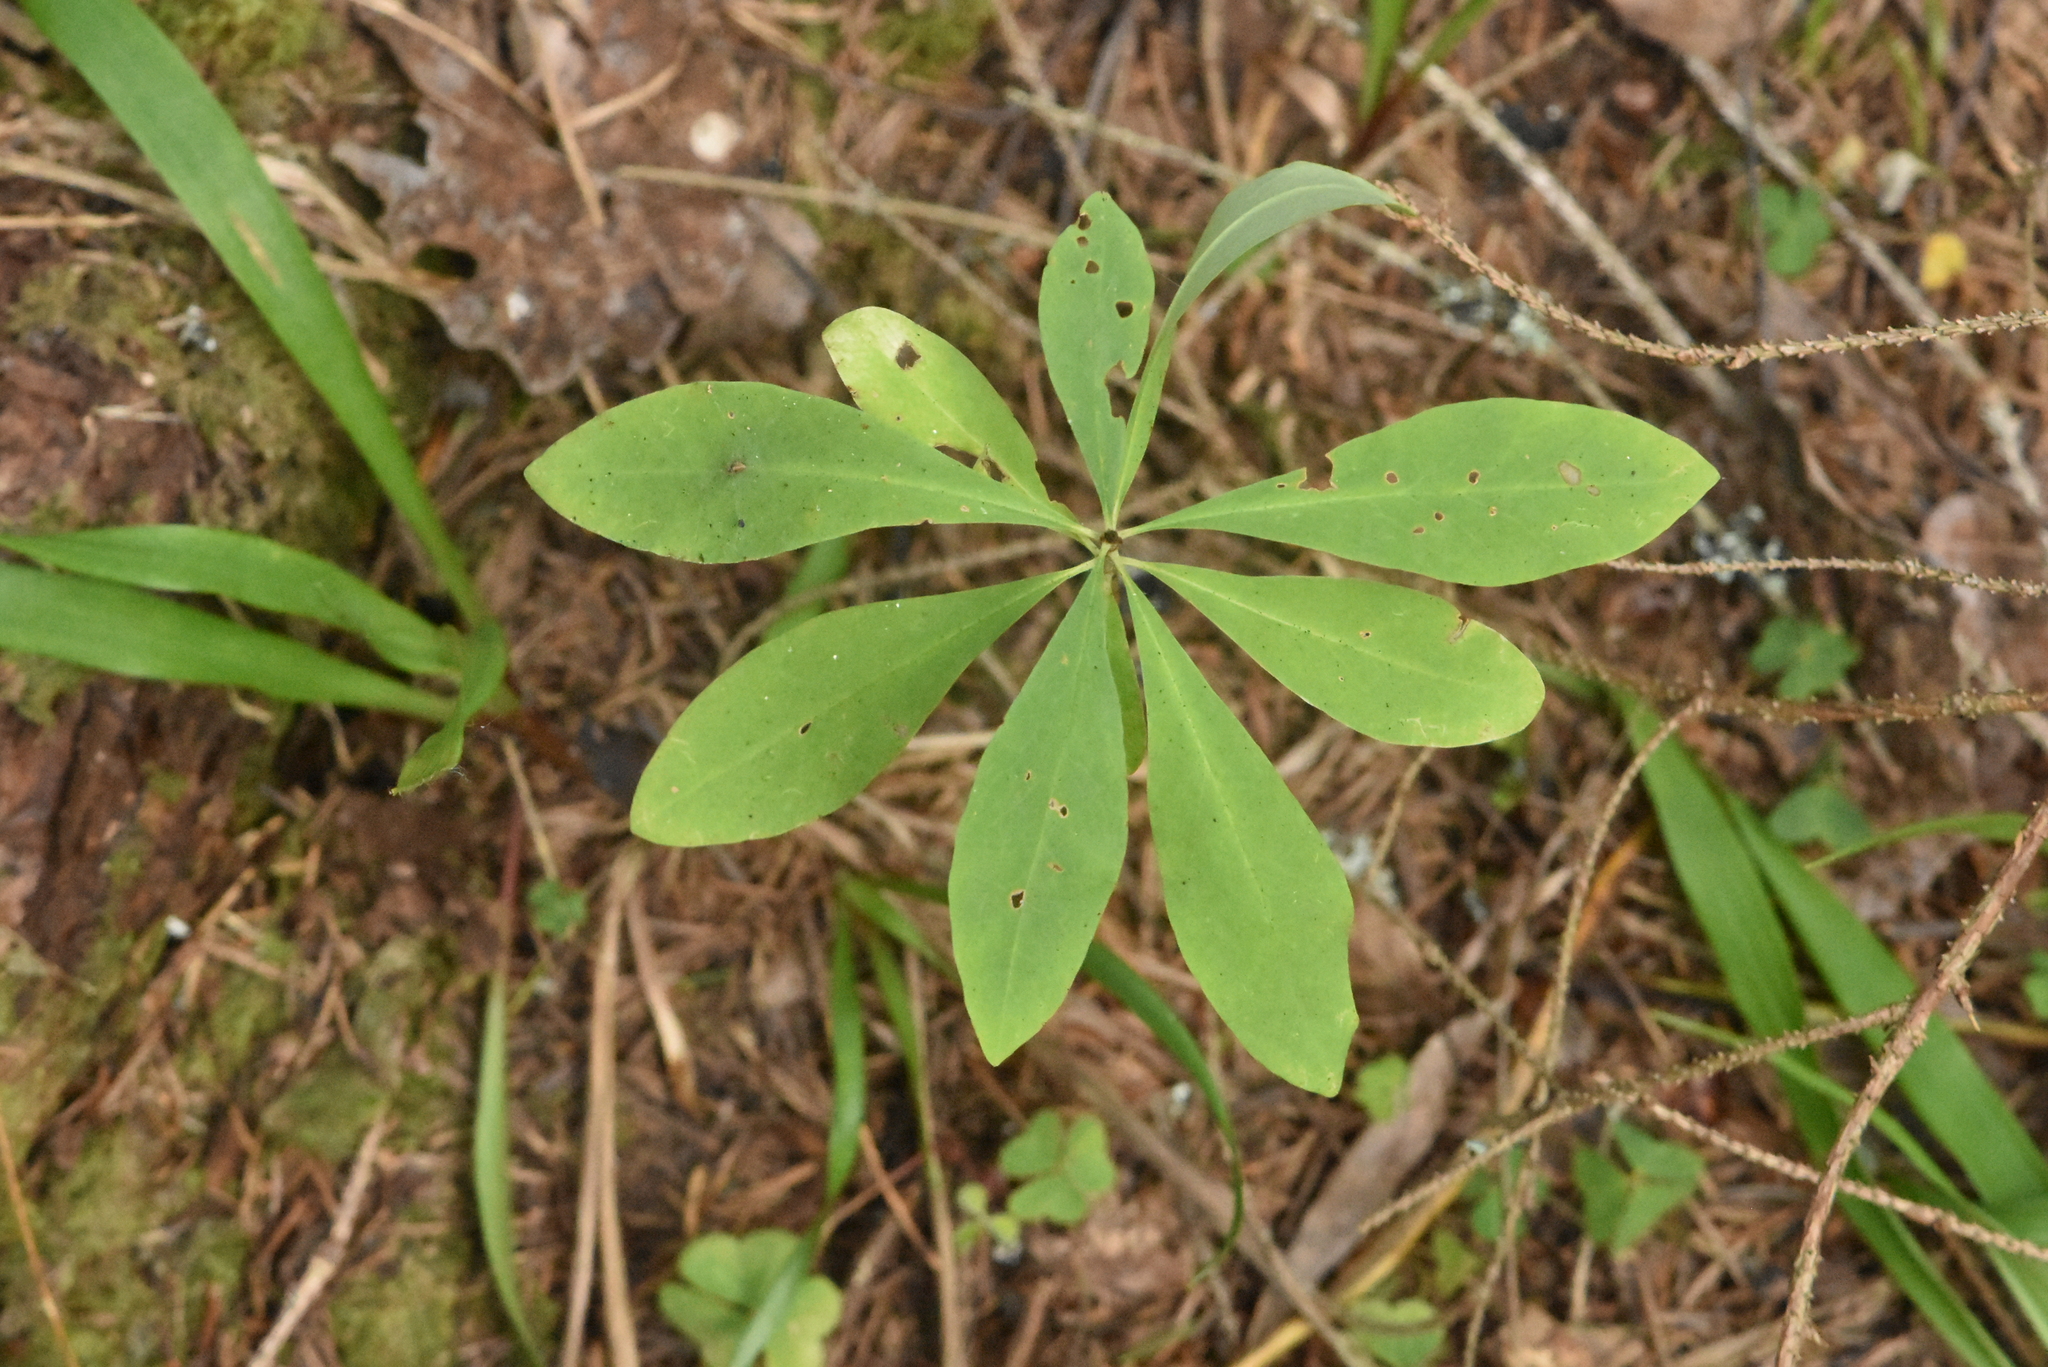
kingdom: Plantae
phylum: Tracheophyta
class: Magnoliopsida
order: Malvales
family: Thymelaeaceae
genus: Daphne
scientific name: Daphne mezereum
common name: Mezereon
